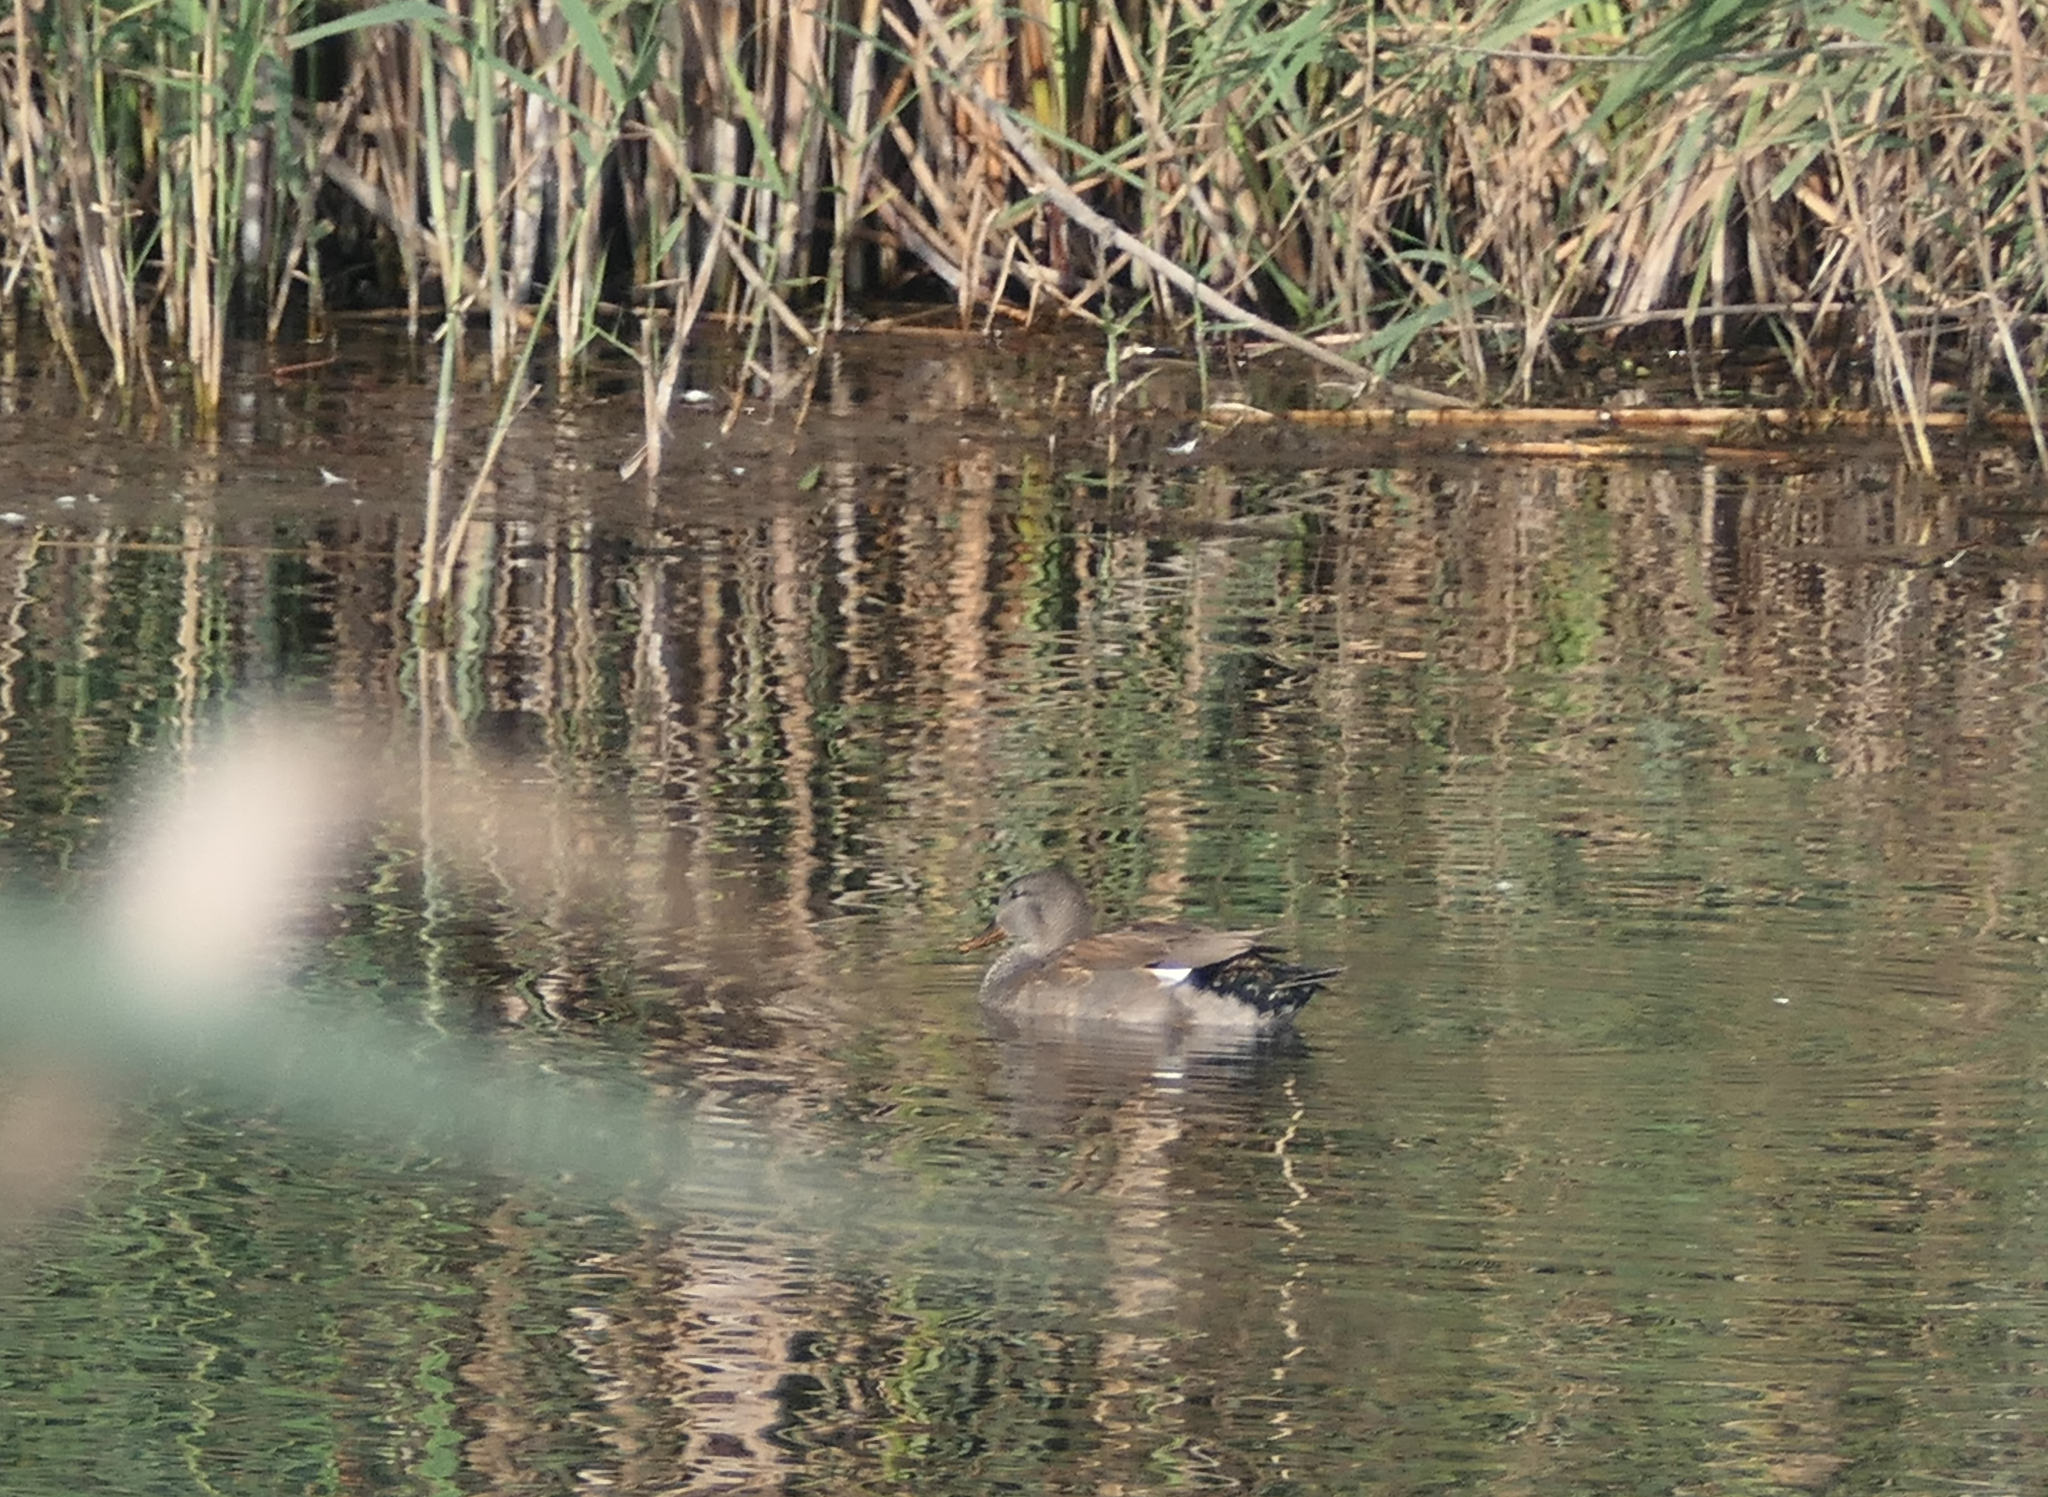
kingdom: Animalia
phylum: Chordata
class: Aves
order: Anseriformes
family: Anatidae
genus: Mareca
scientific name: Mareca strepera
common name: Gadwall
